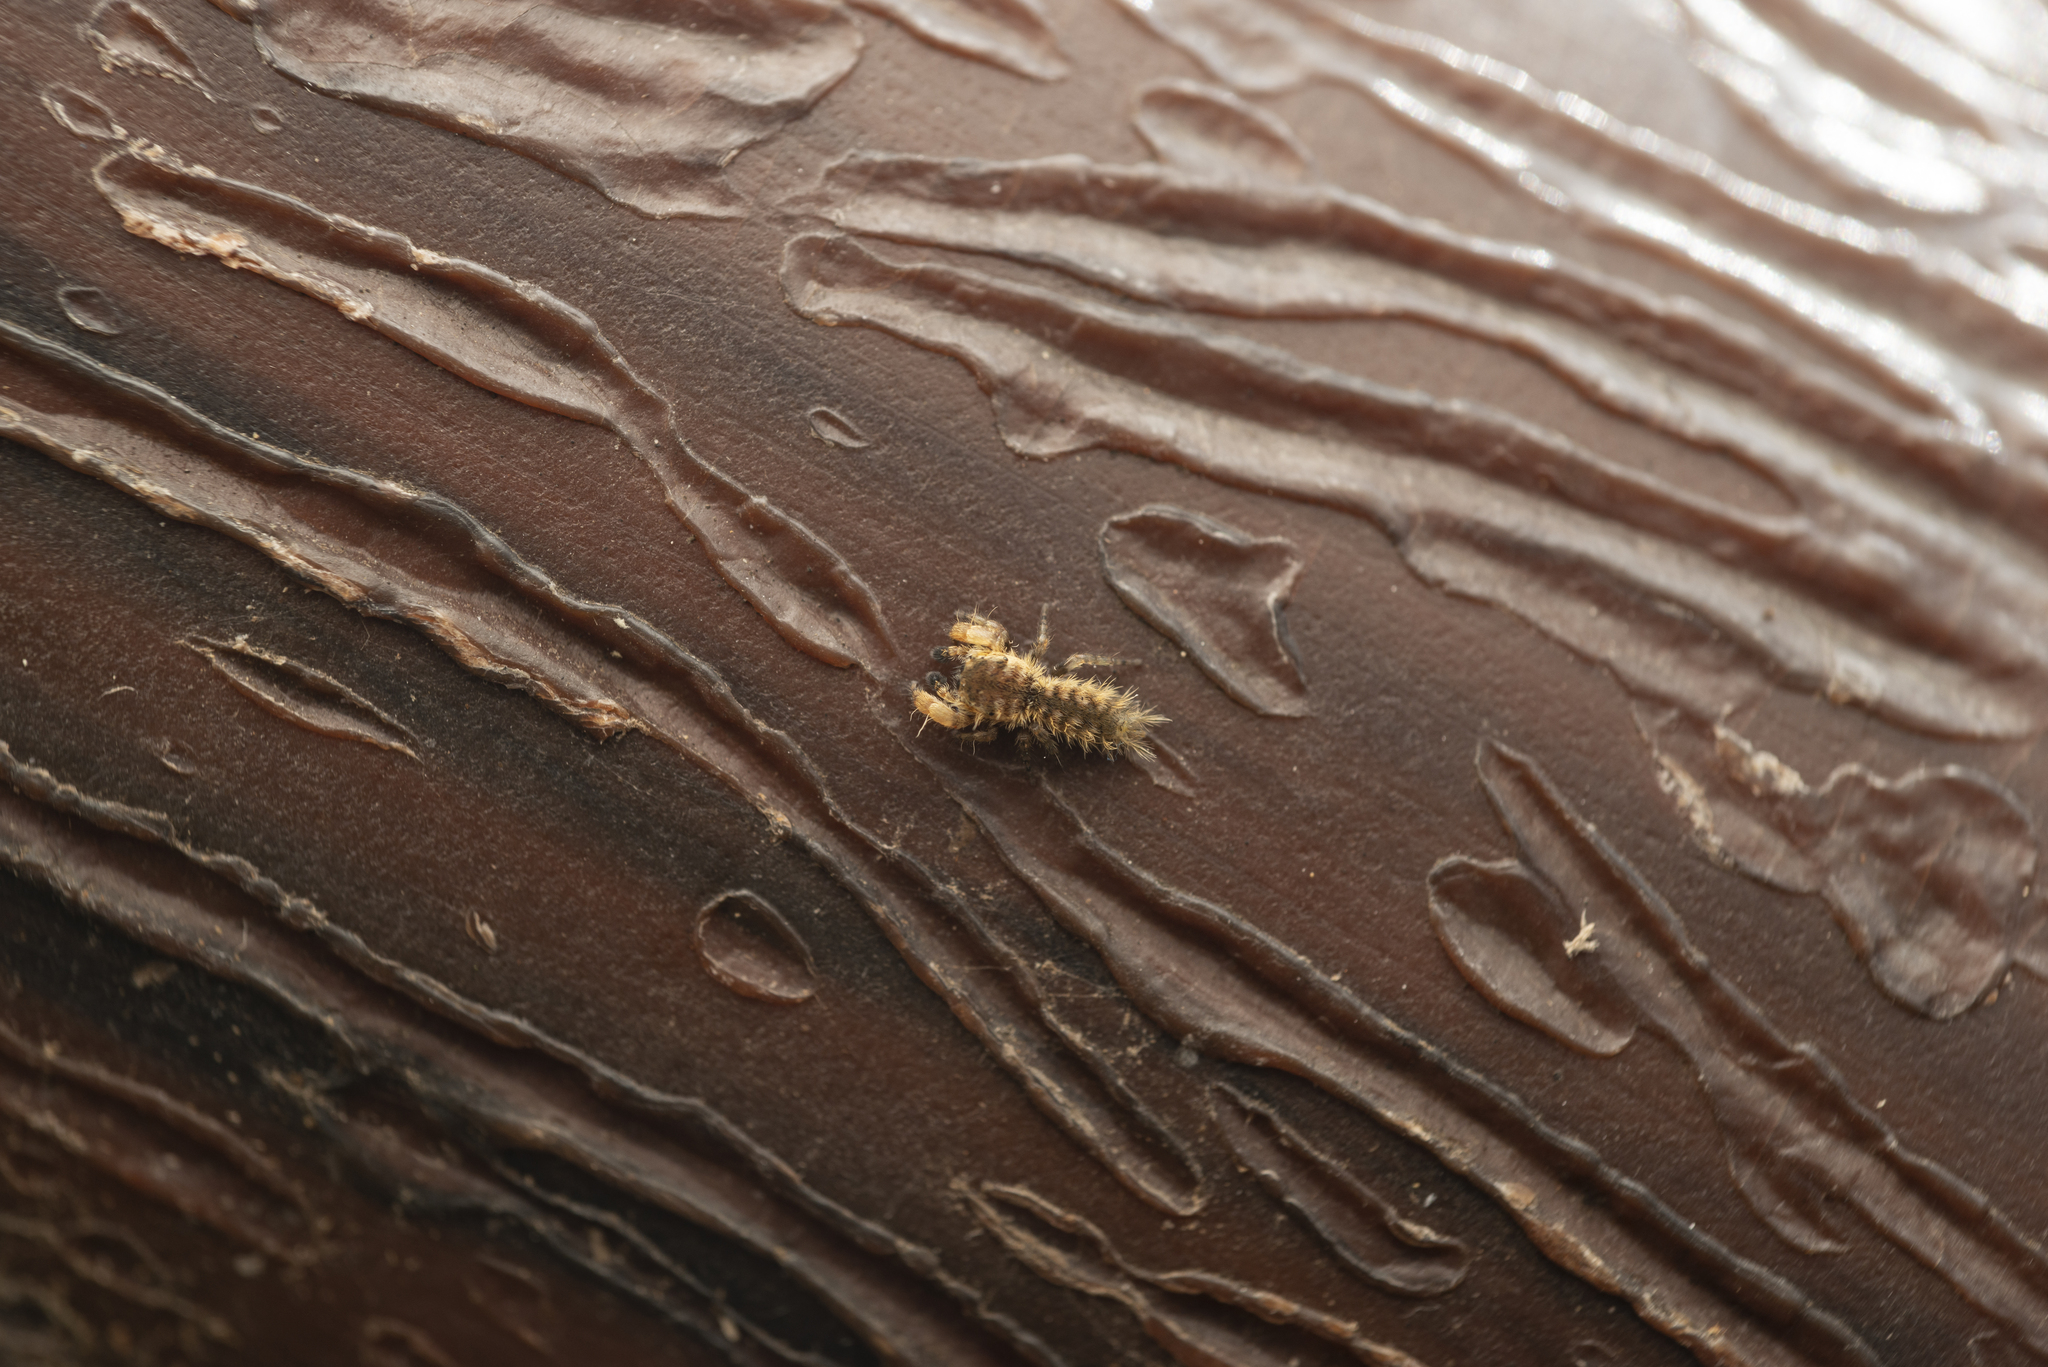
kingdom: Animalia
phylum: Arthropoda
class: Arachnida
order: Araneae
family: Salticidae
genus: Uroballus
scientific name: Uroballus carlei
